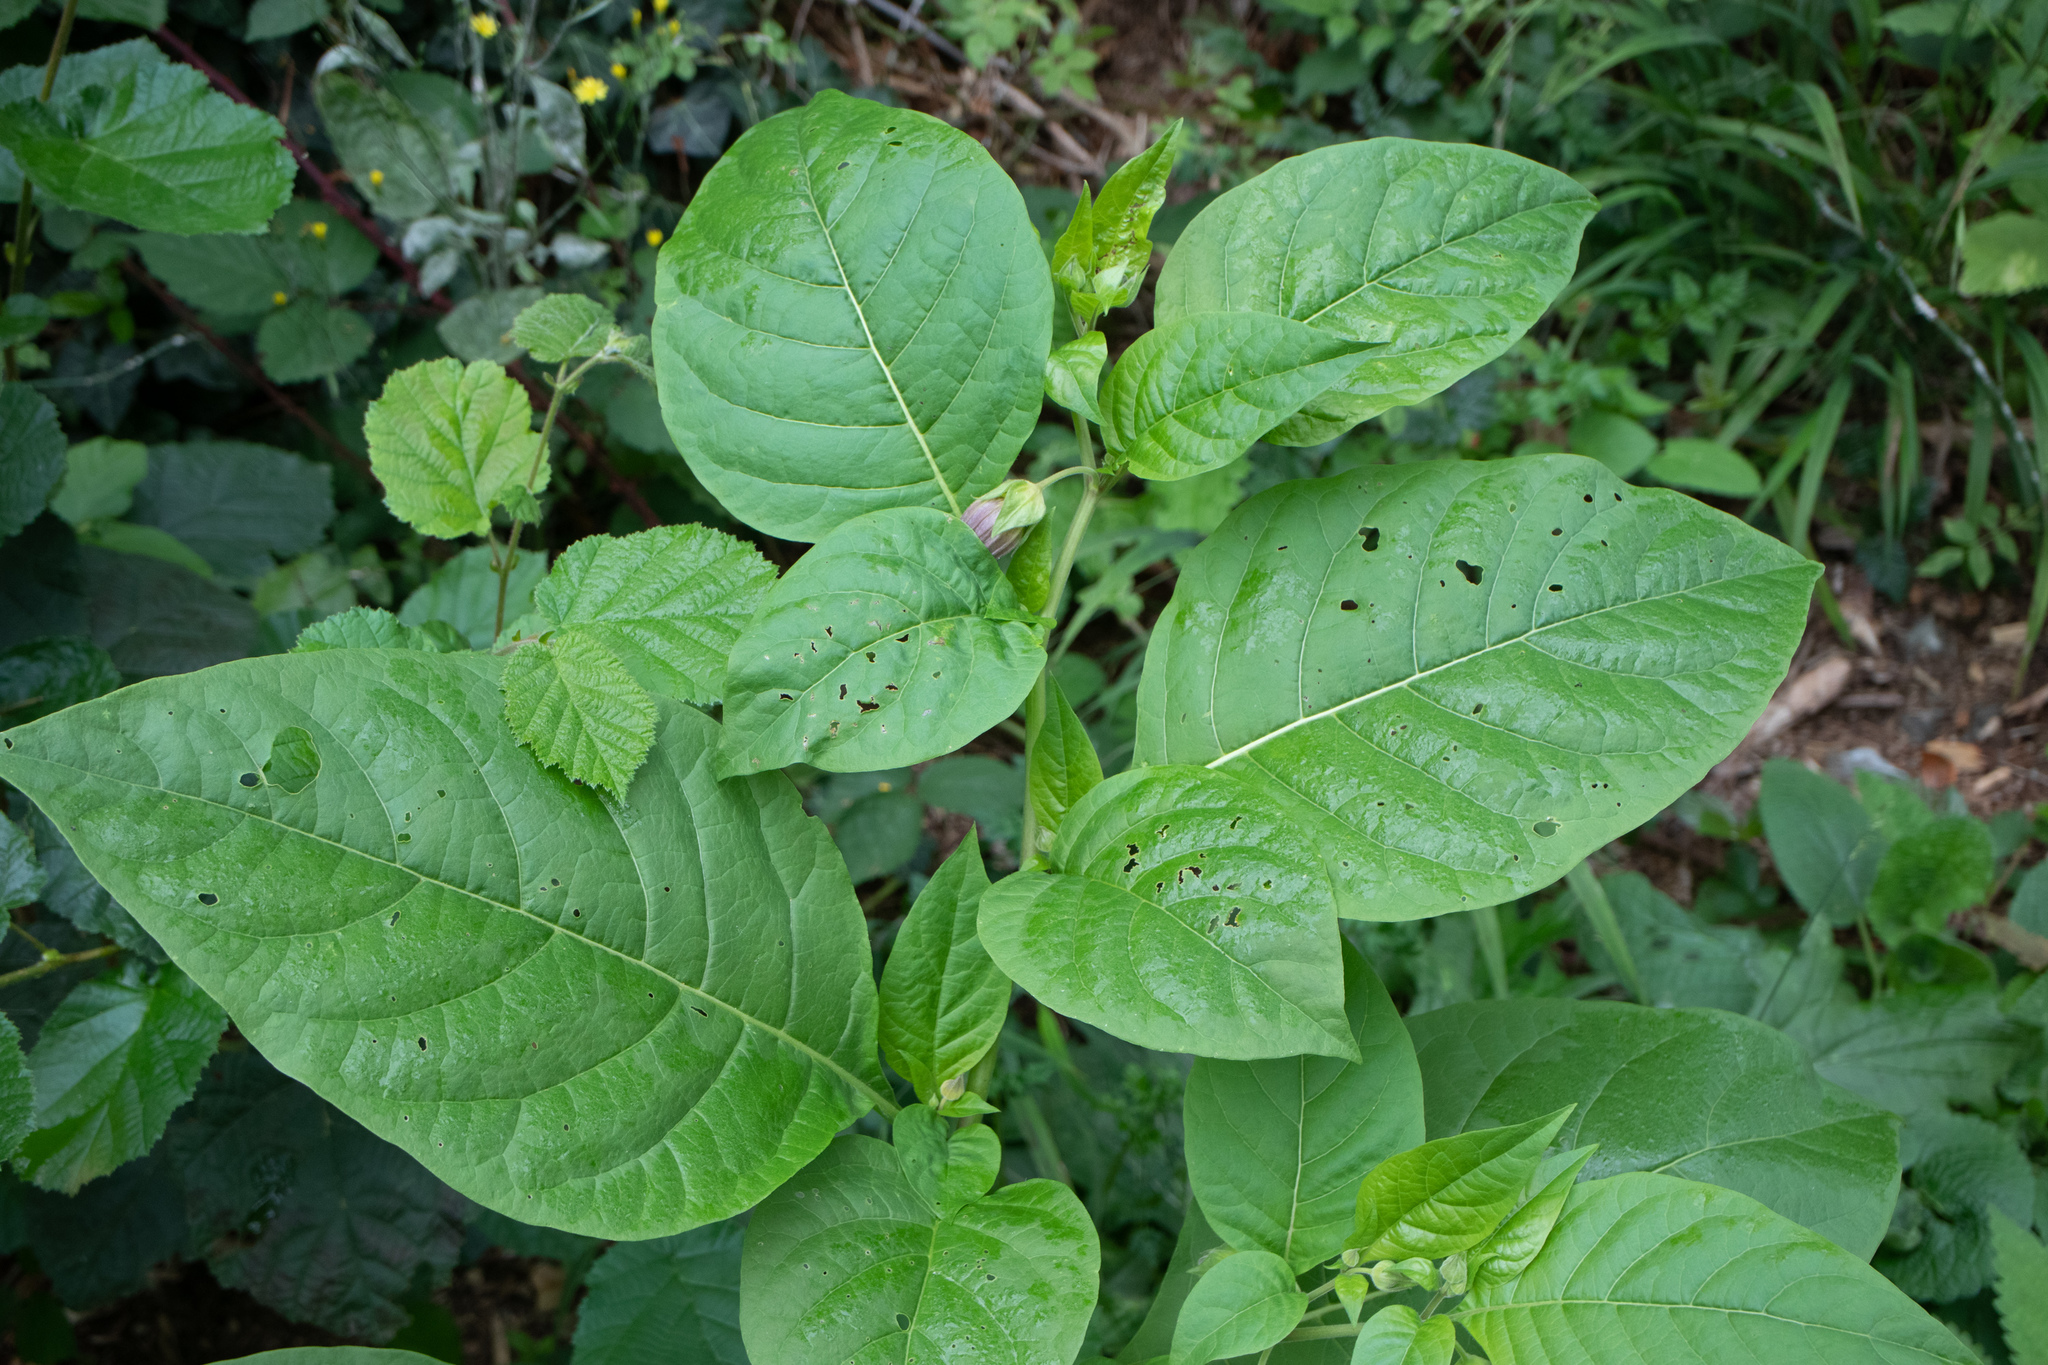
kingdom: Plantae
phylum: Tracheophyta
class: Magnoliopsida
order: Solanales
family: Solanaceae
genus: Atropa
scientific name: Atropa belladonna
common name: Deadly nightshade
